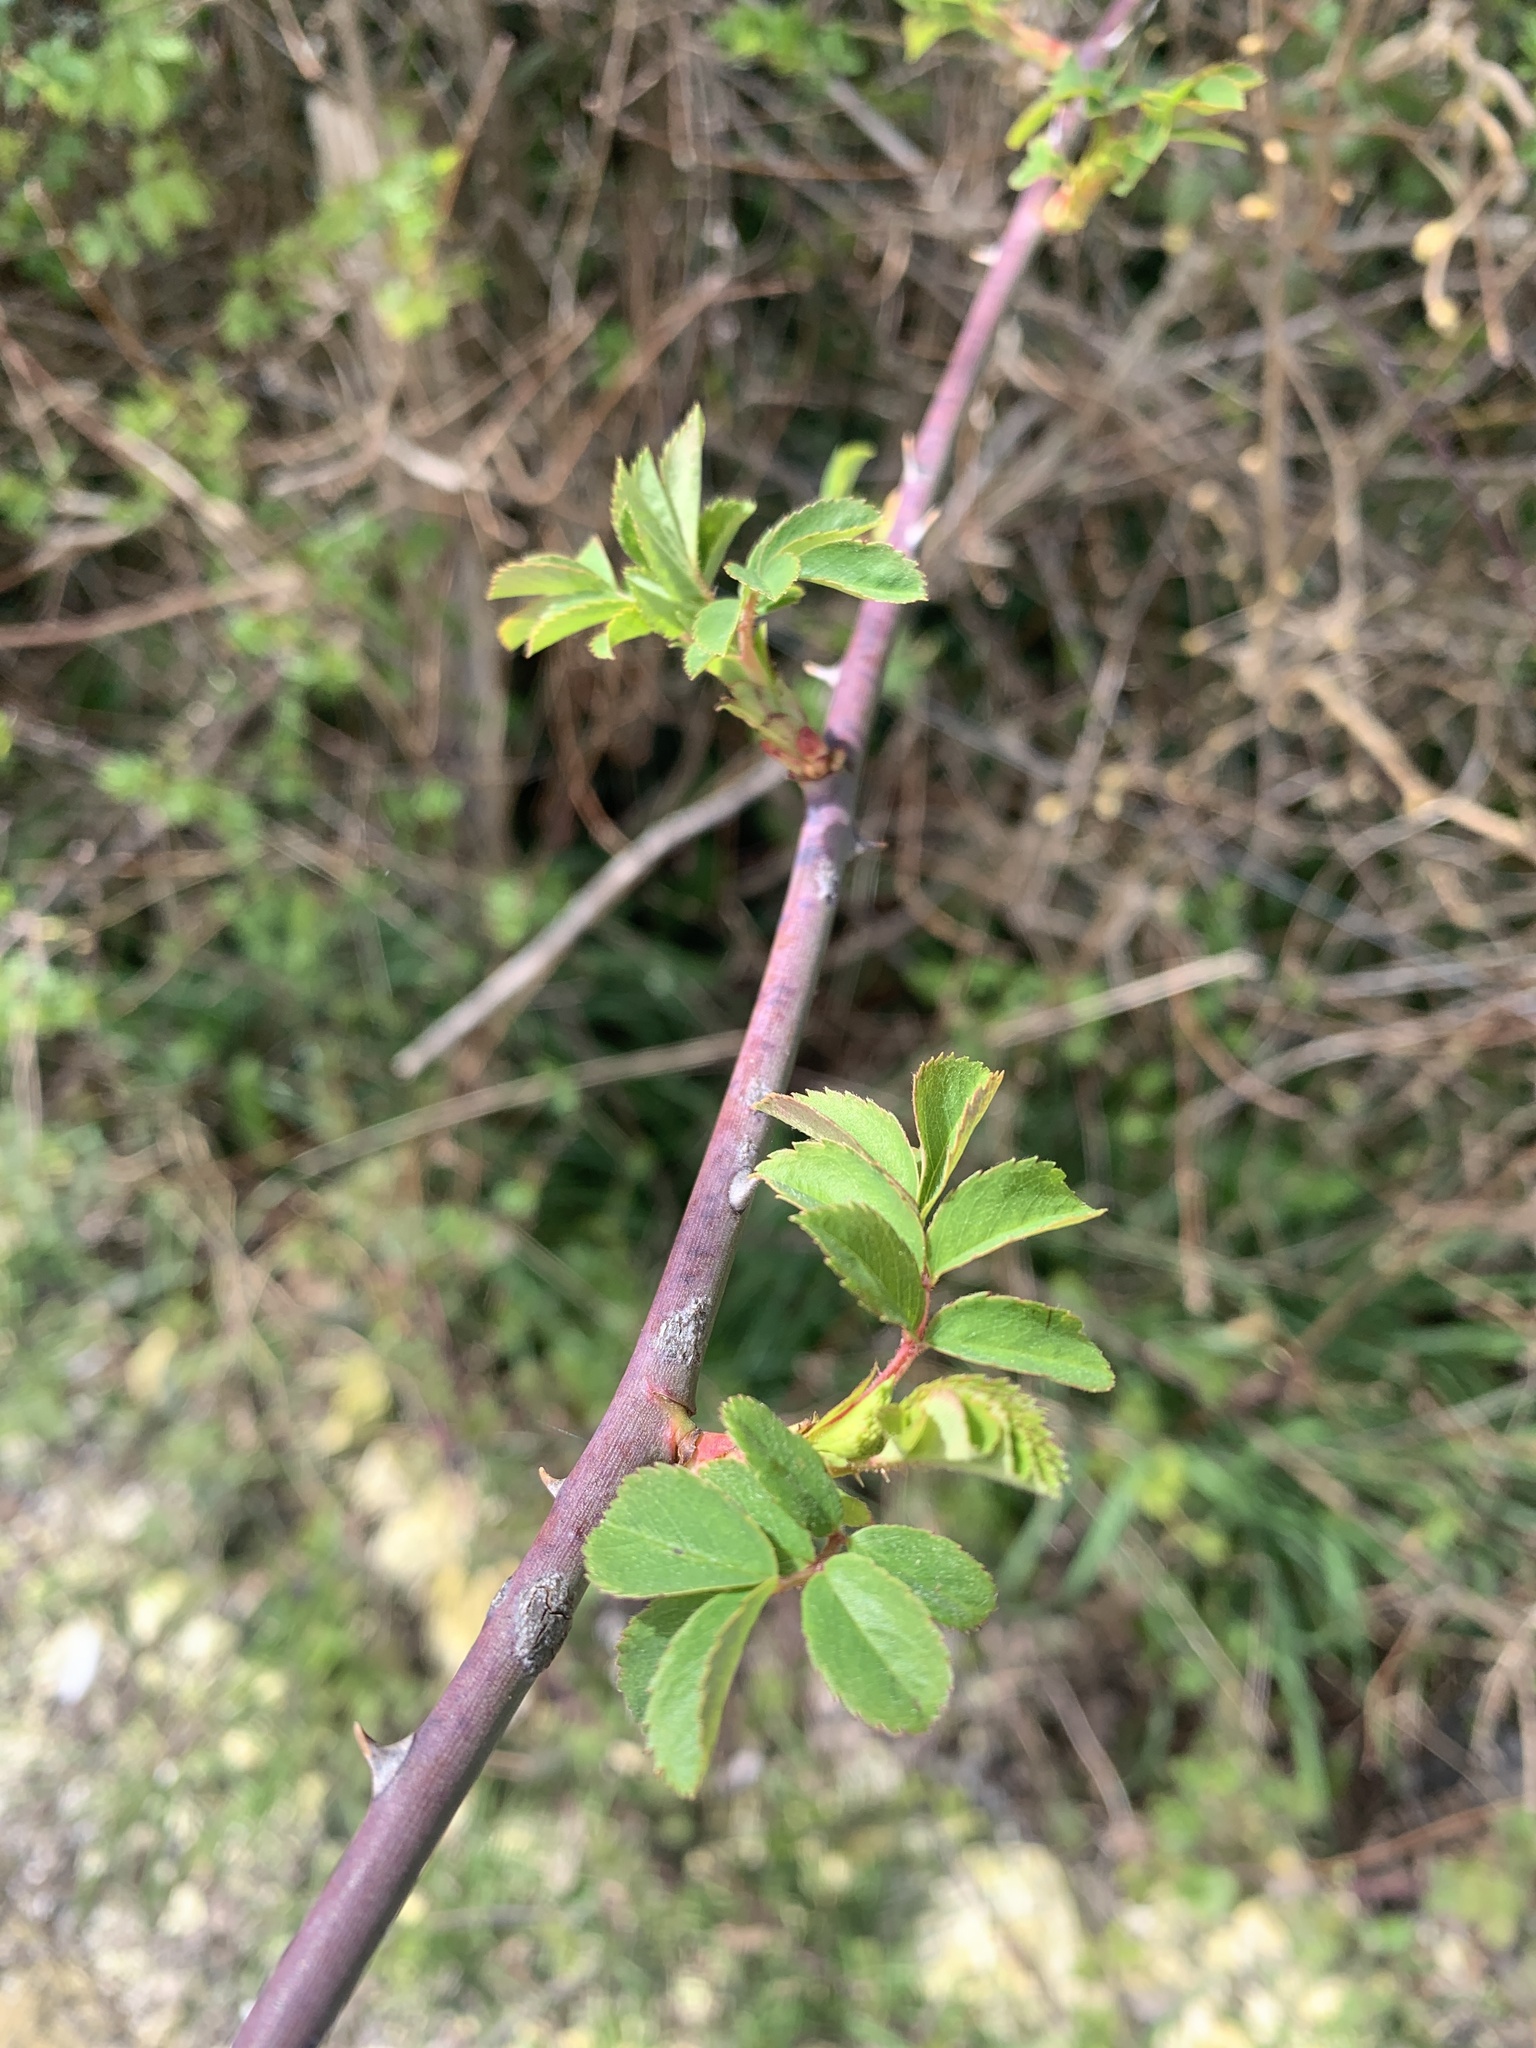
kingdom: Plantae
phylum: Tracheophyta
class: Magnoliopsida
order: Rosales
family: Rosaceae
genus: Rosa
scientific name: Rosa canina
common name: Dog rose
